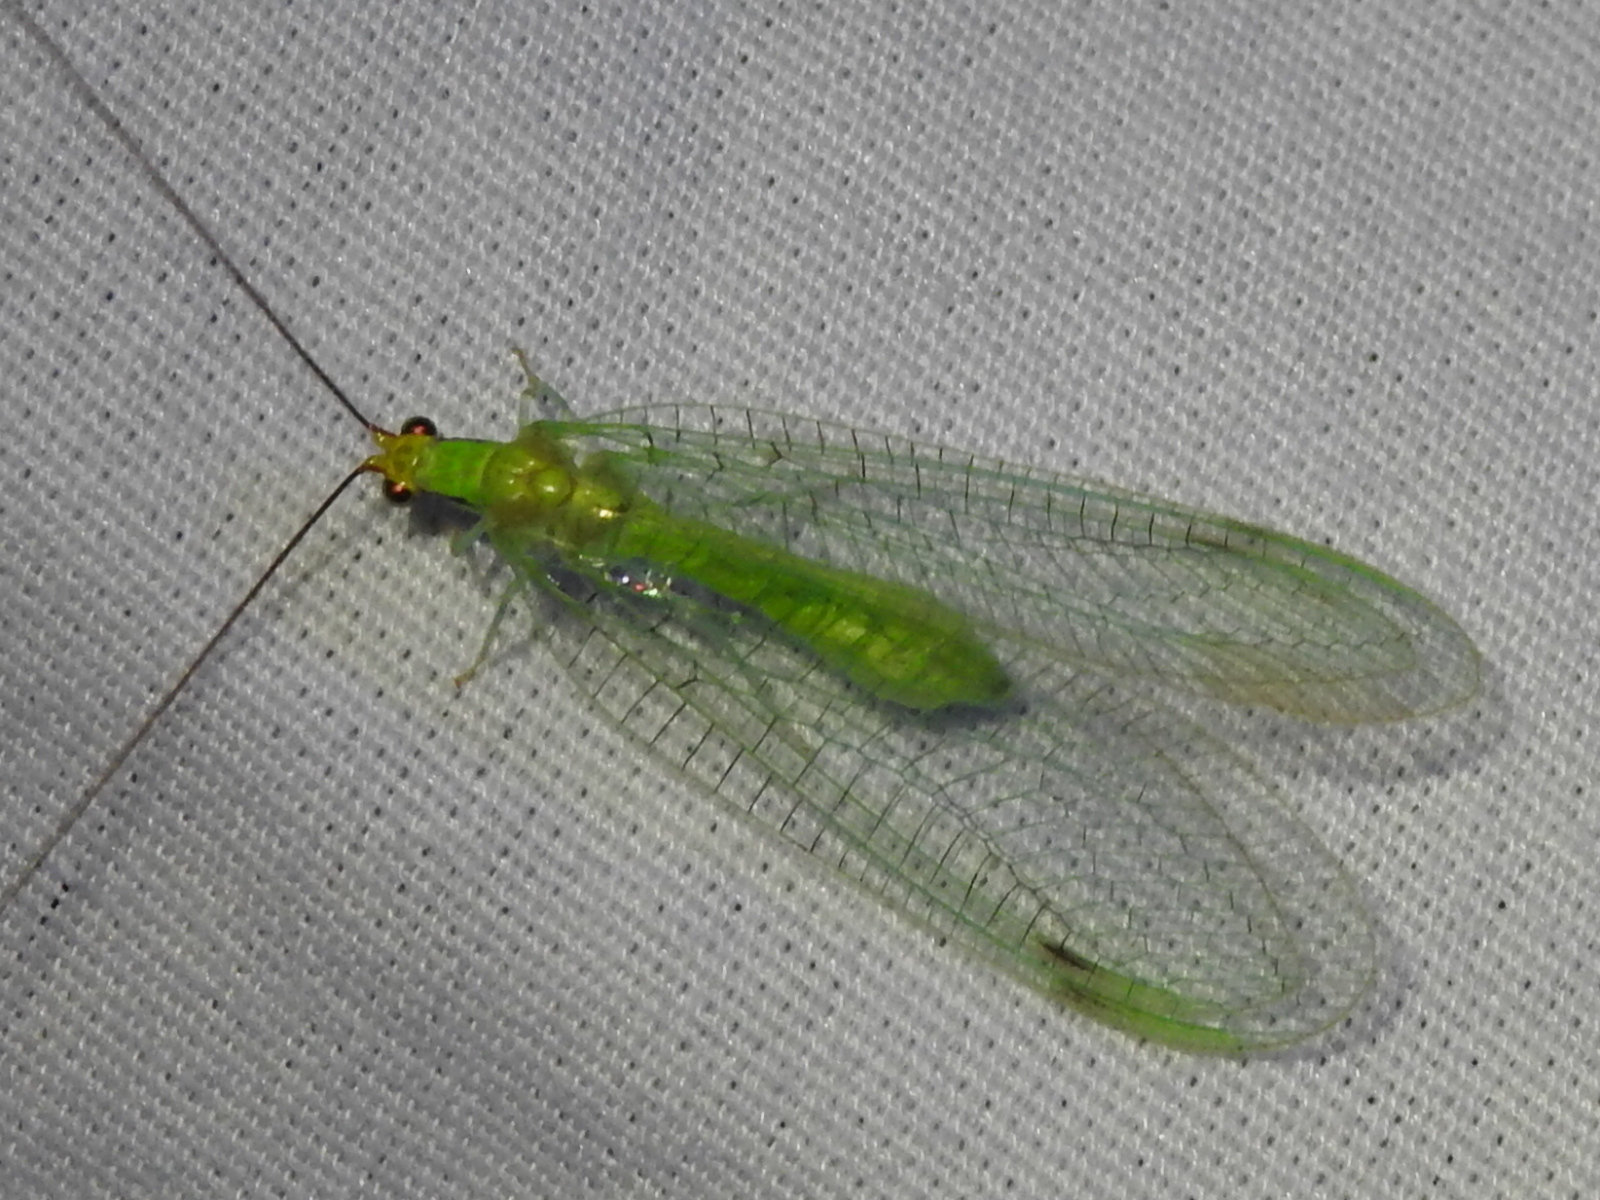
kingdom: Animalia
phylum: Arthropoda
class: Insecta
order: Neuroptera
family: Chrysopidae
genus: Leucochrysa
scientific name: Leucochrysa pavida
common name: Lichen-carrying green lacewing
